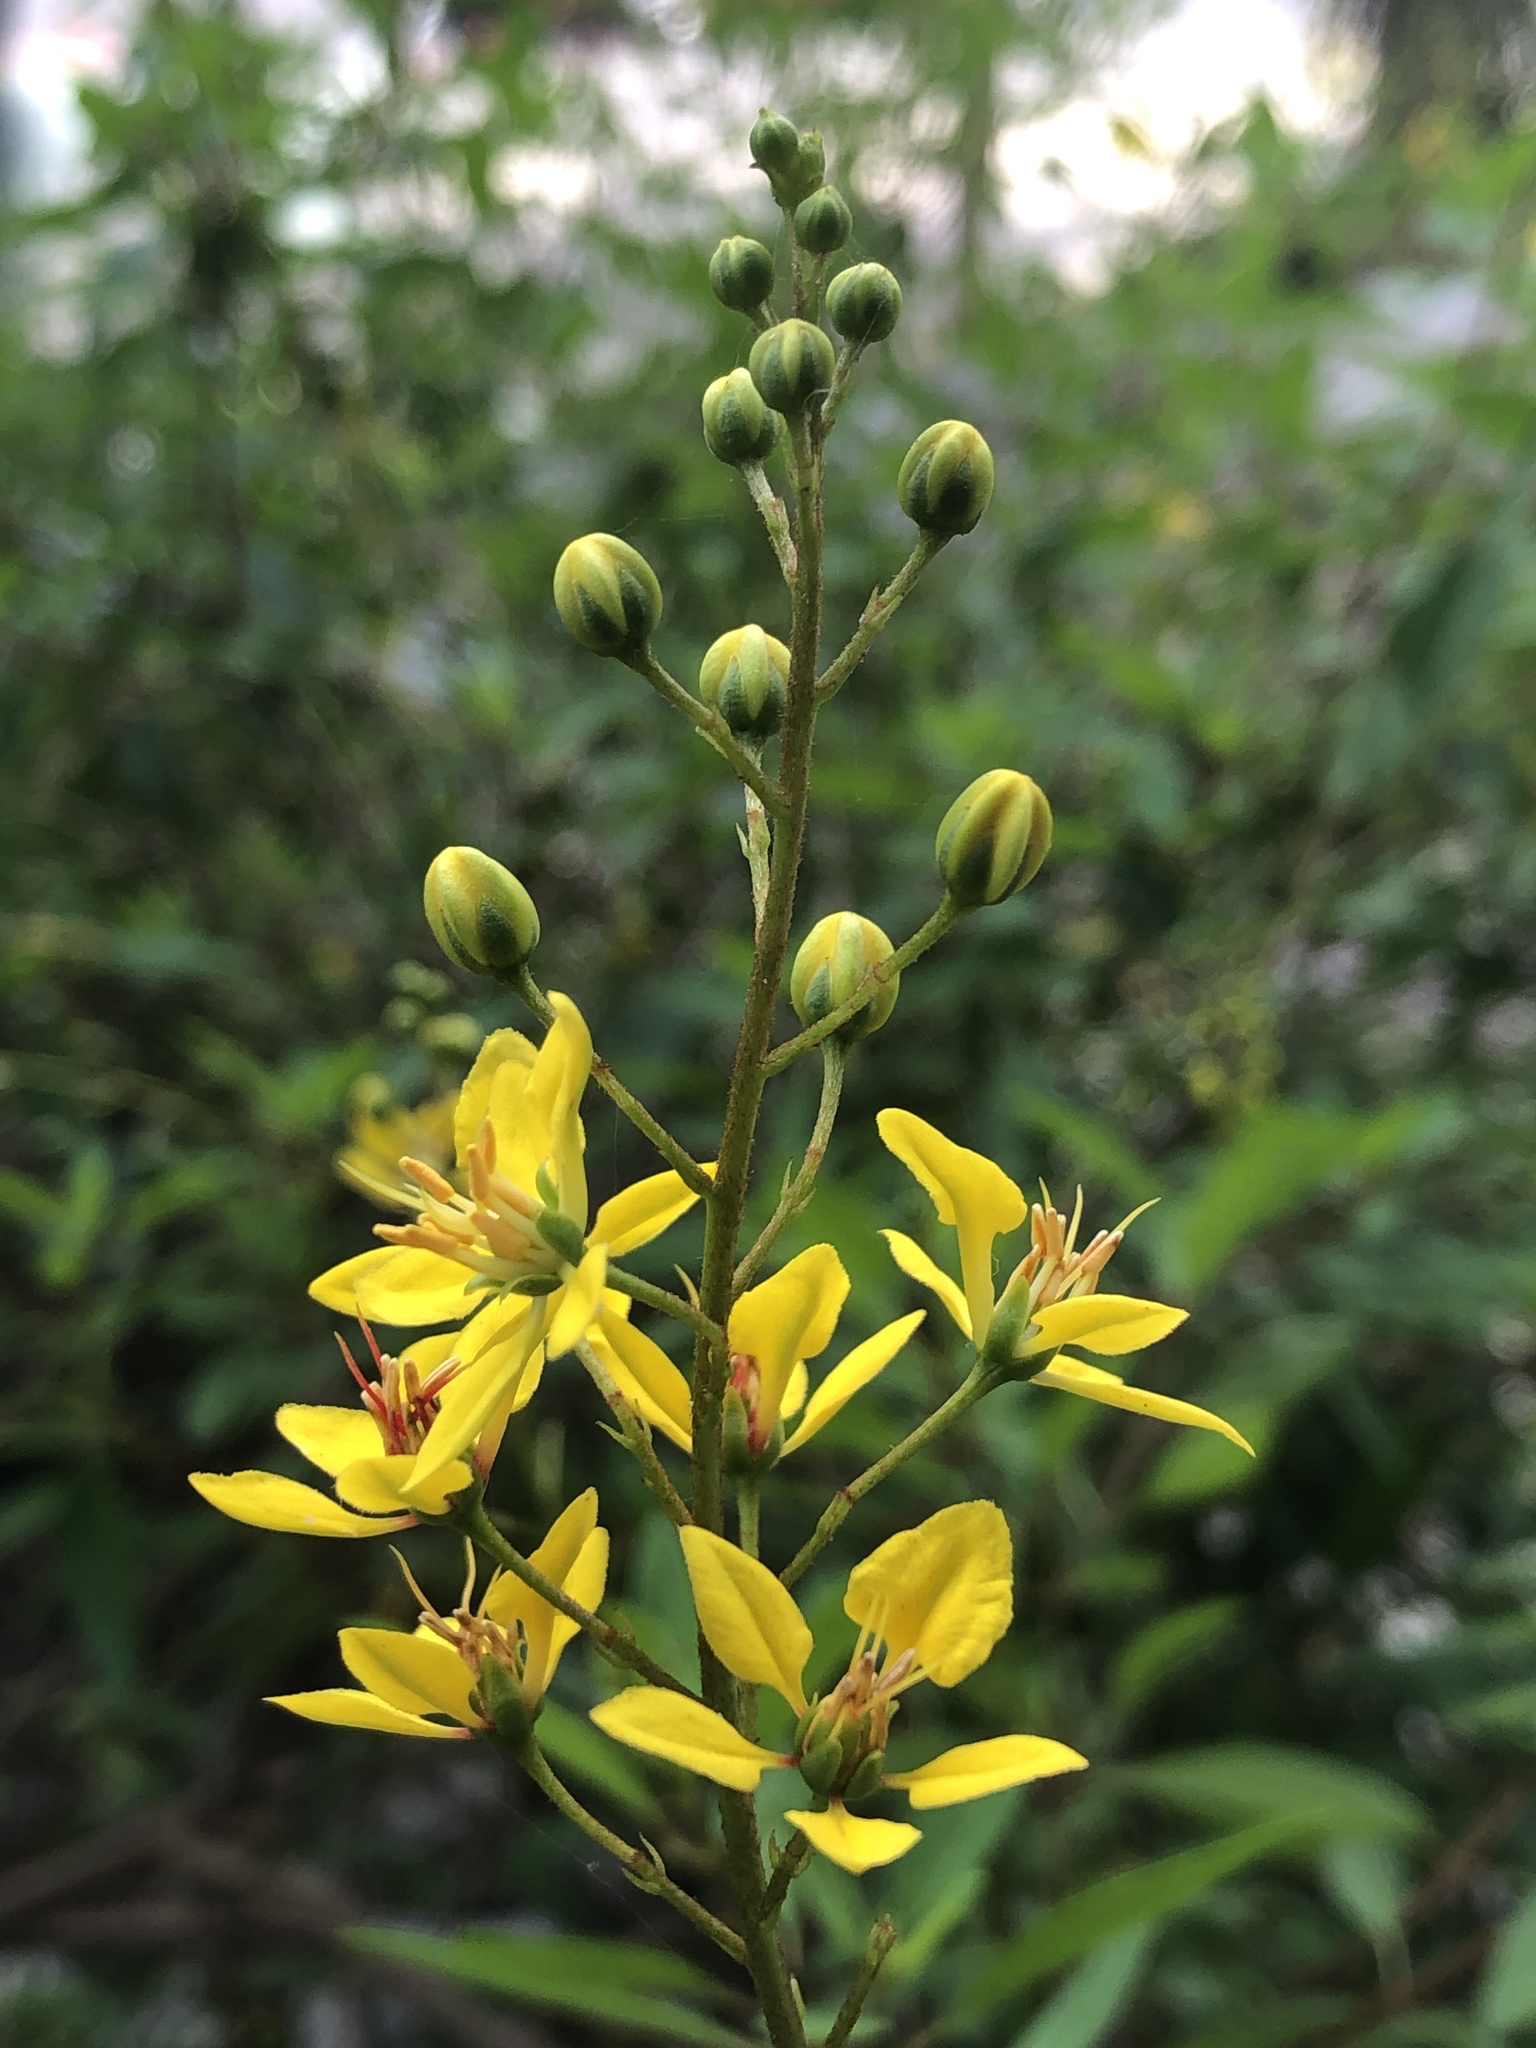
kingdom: Plantae
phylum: Tracheophyta
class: Magnoliopsida
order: Malpighiales
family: Malpighiaceae
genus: Galphimia
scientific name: Galphimia gracilis
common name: Slender goldshower
